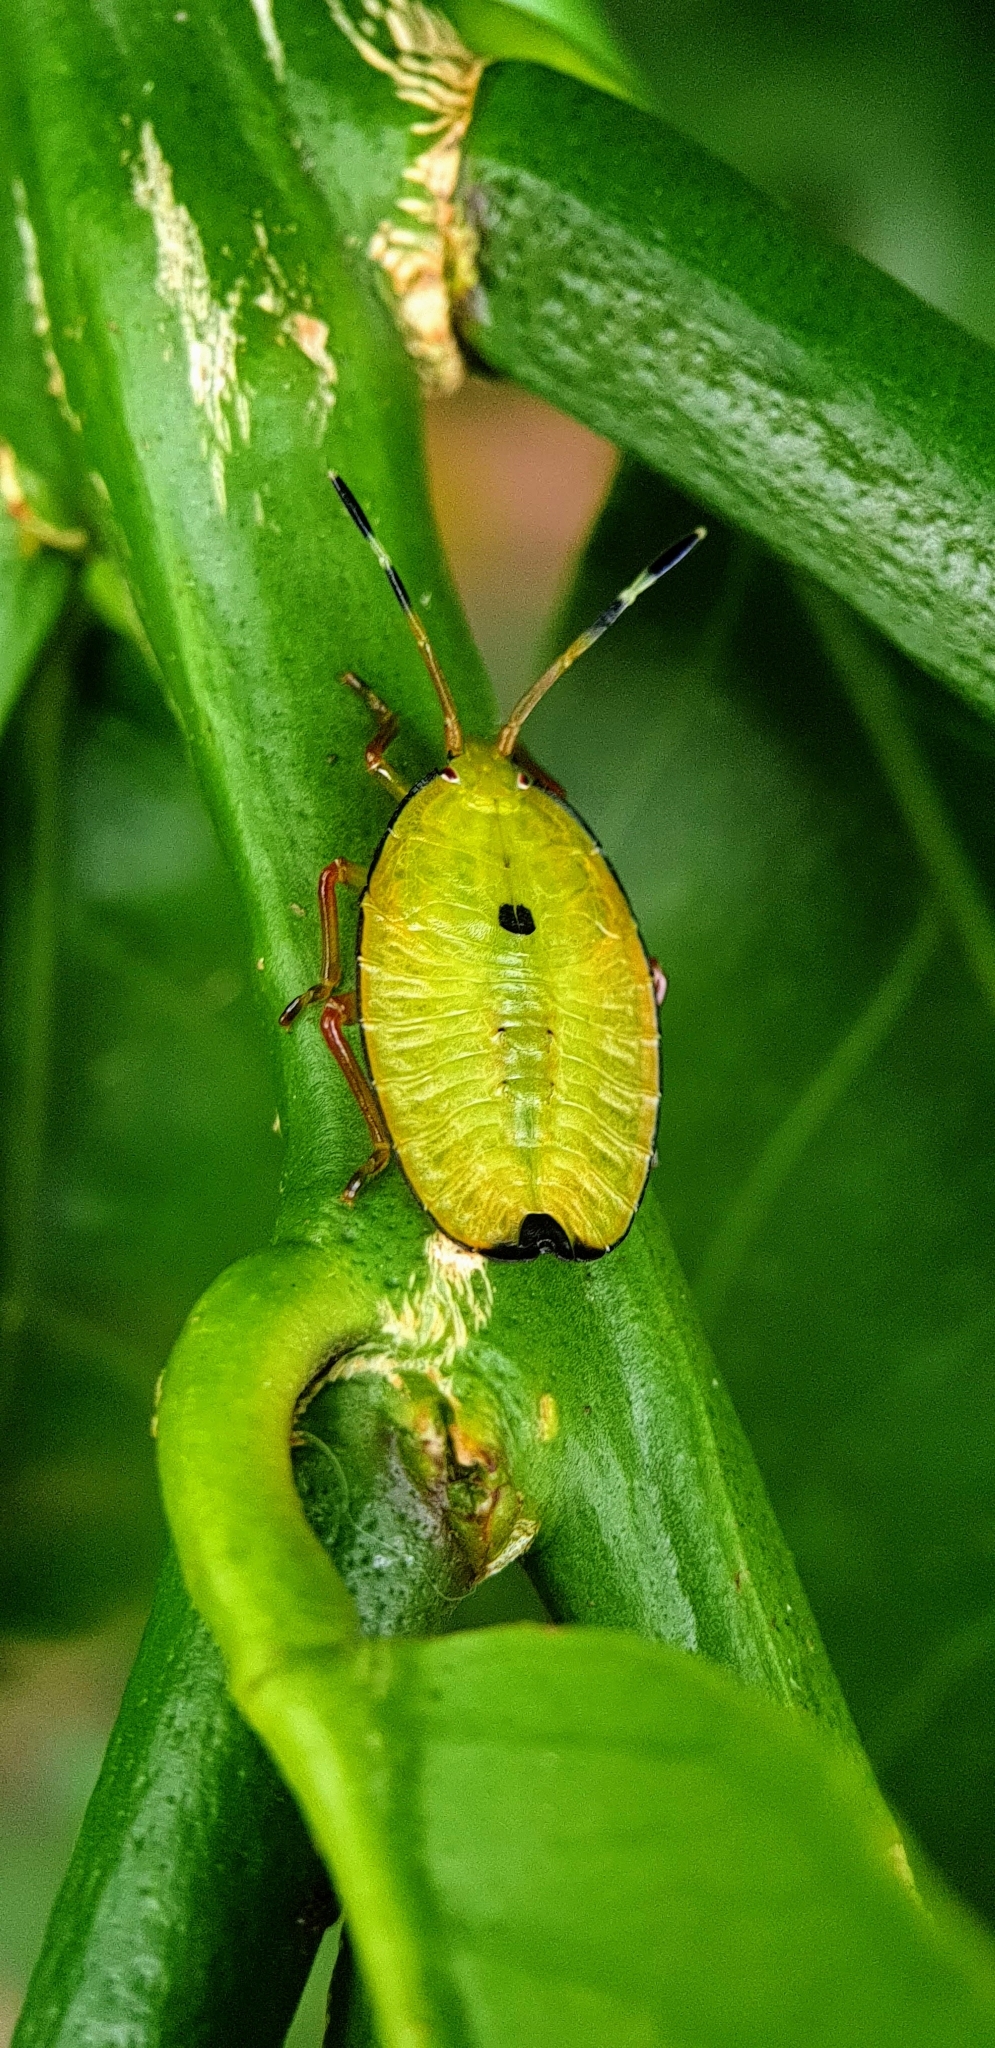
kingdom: Animalia
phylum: Arthropoda
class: Insecta
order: Hemiptera
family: Tessaratomidae
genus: Musgraveia
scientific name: Musgraveia sulciventris
